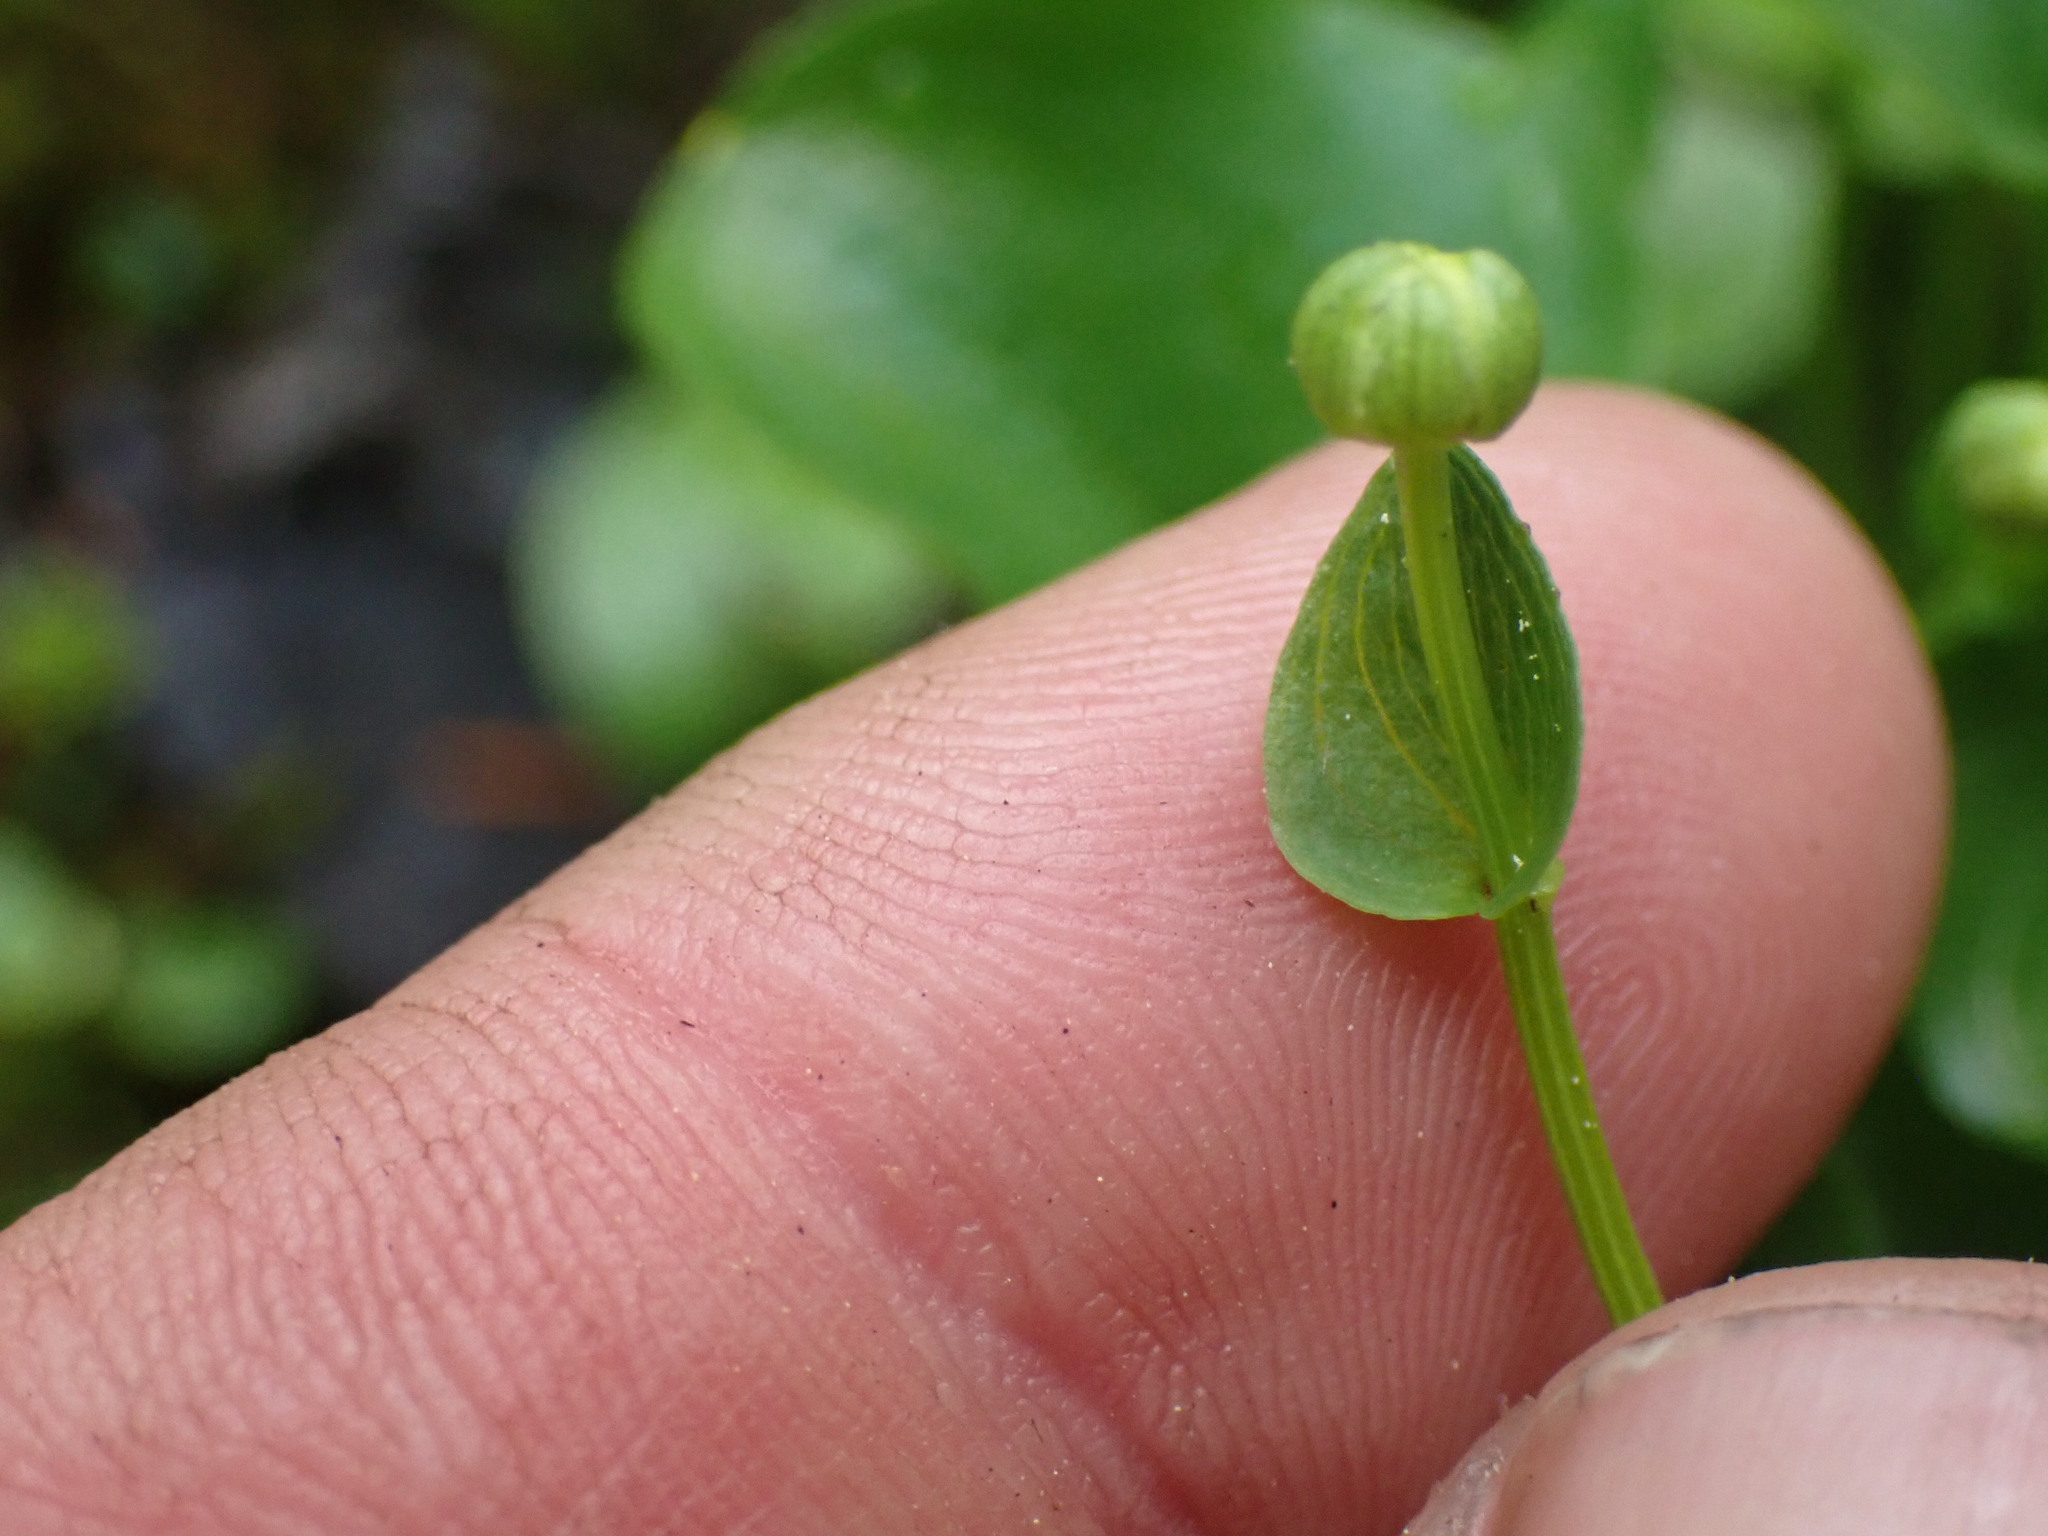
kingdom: Plantae
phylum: Tracheophyta
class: Magnoliopsida
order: Celastrales
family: Parnassiaceae
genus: Parnassia
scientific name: Parnassia fimbriata
